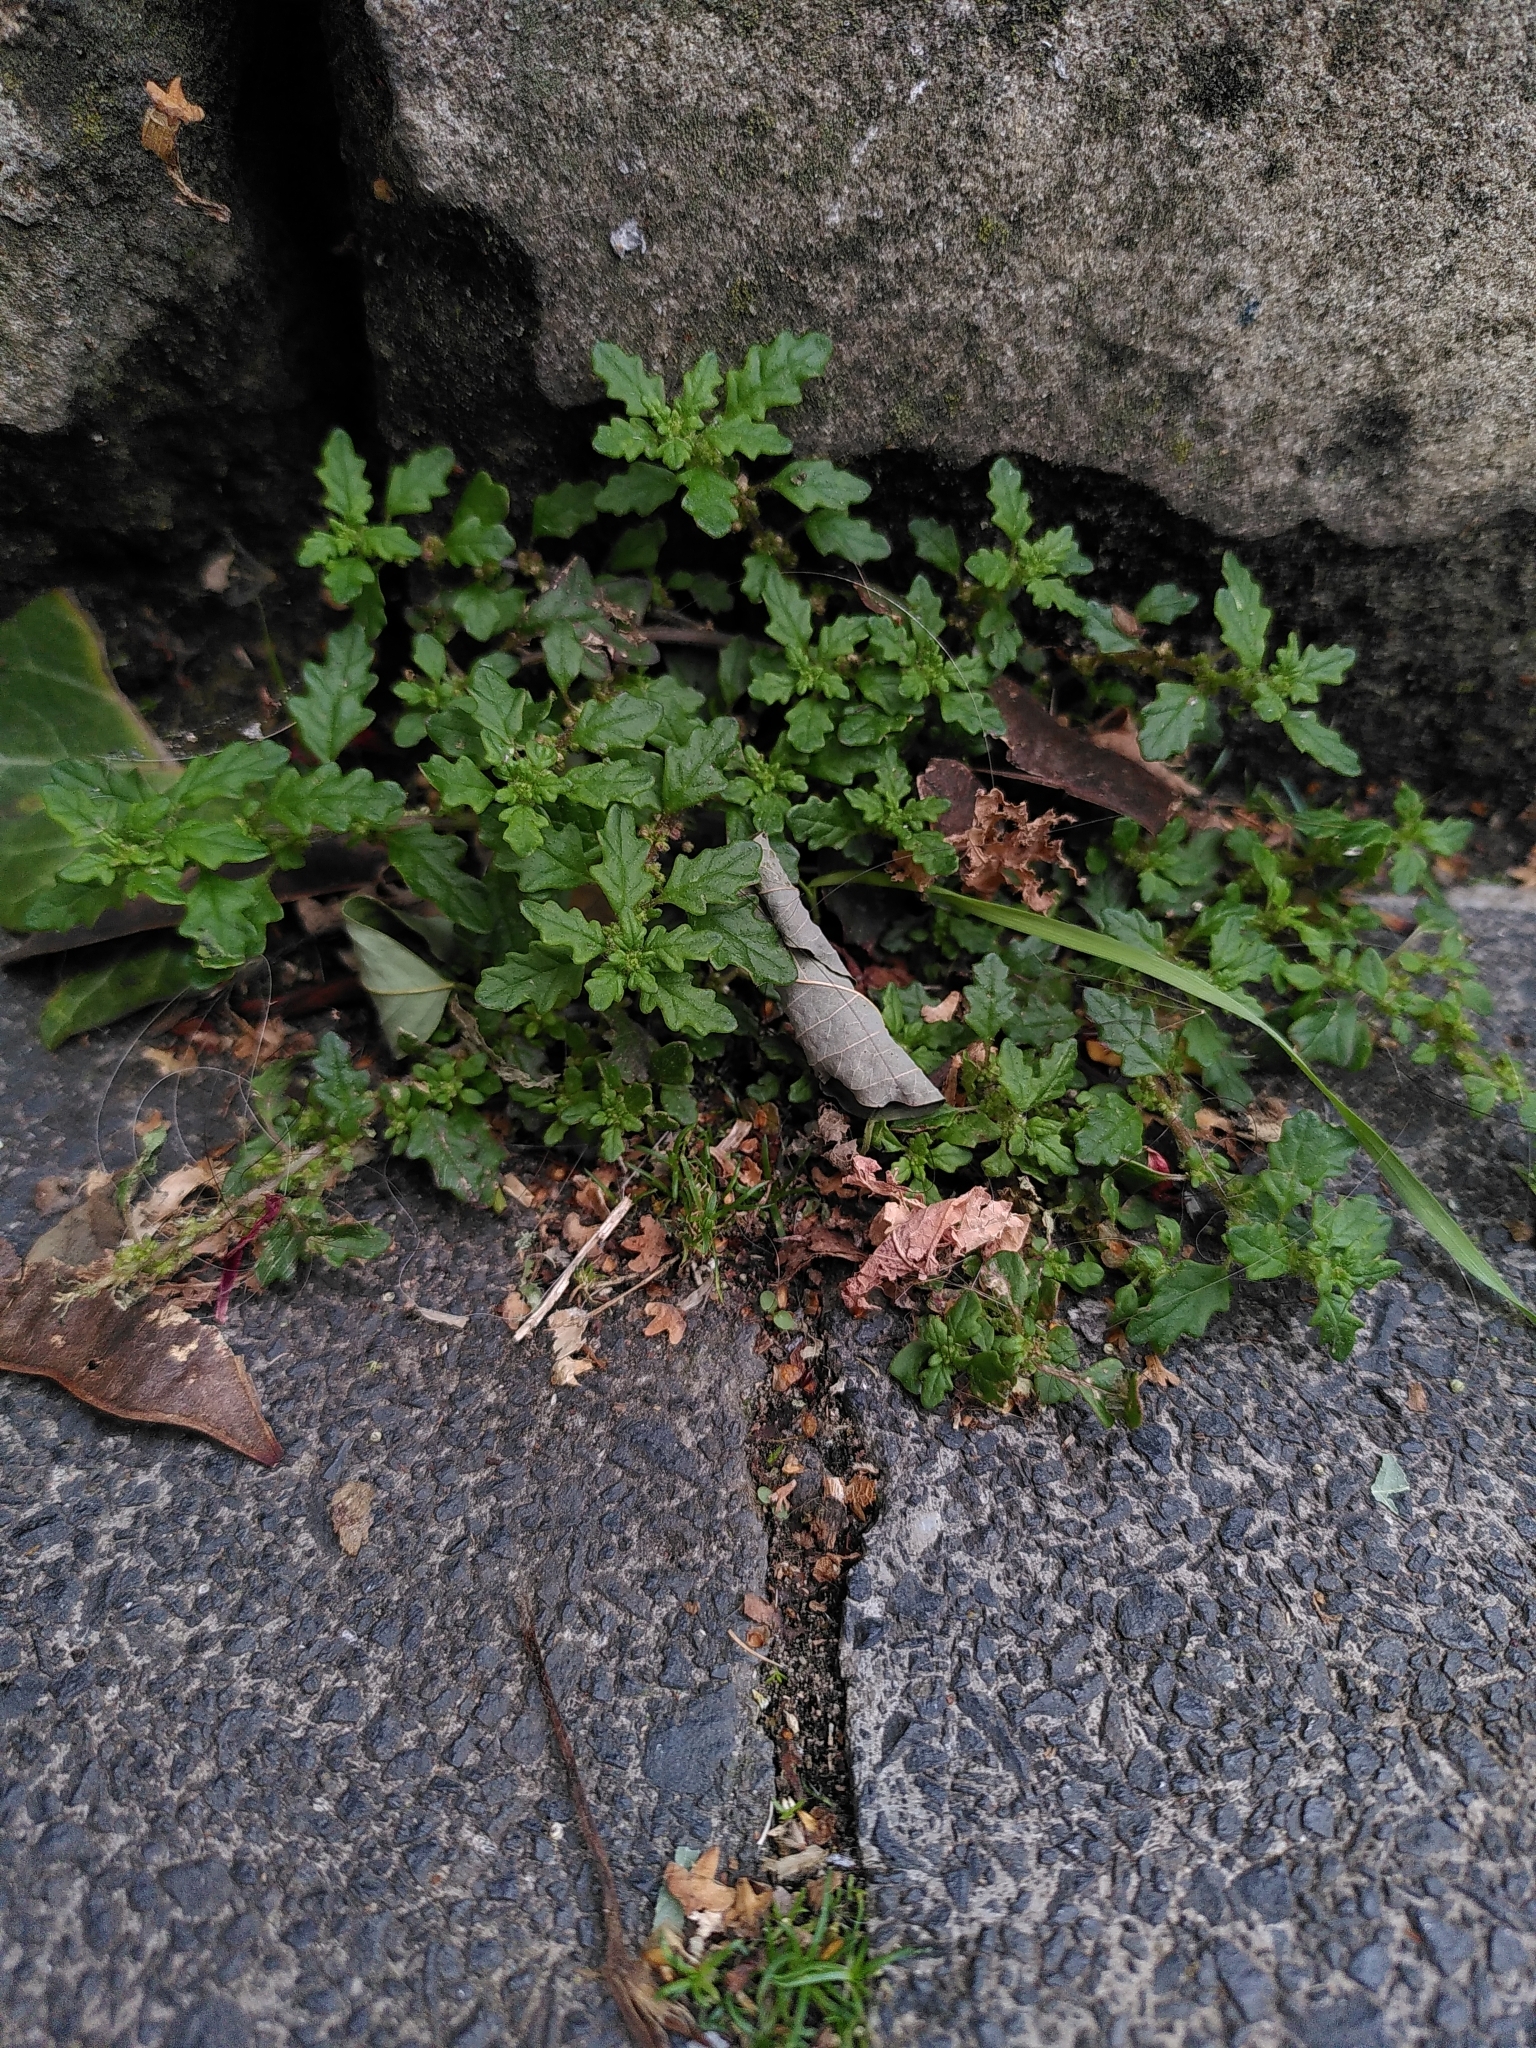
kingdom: Plantae
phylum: Tracheophyta
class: Magnoliopsida
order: Caryophyllales
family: Amaranthaceae
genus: Dysphania
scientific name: Dysphania pumilio
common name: Clammy goosefoot
